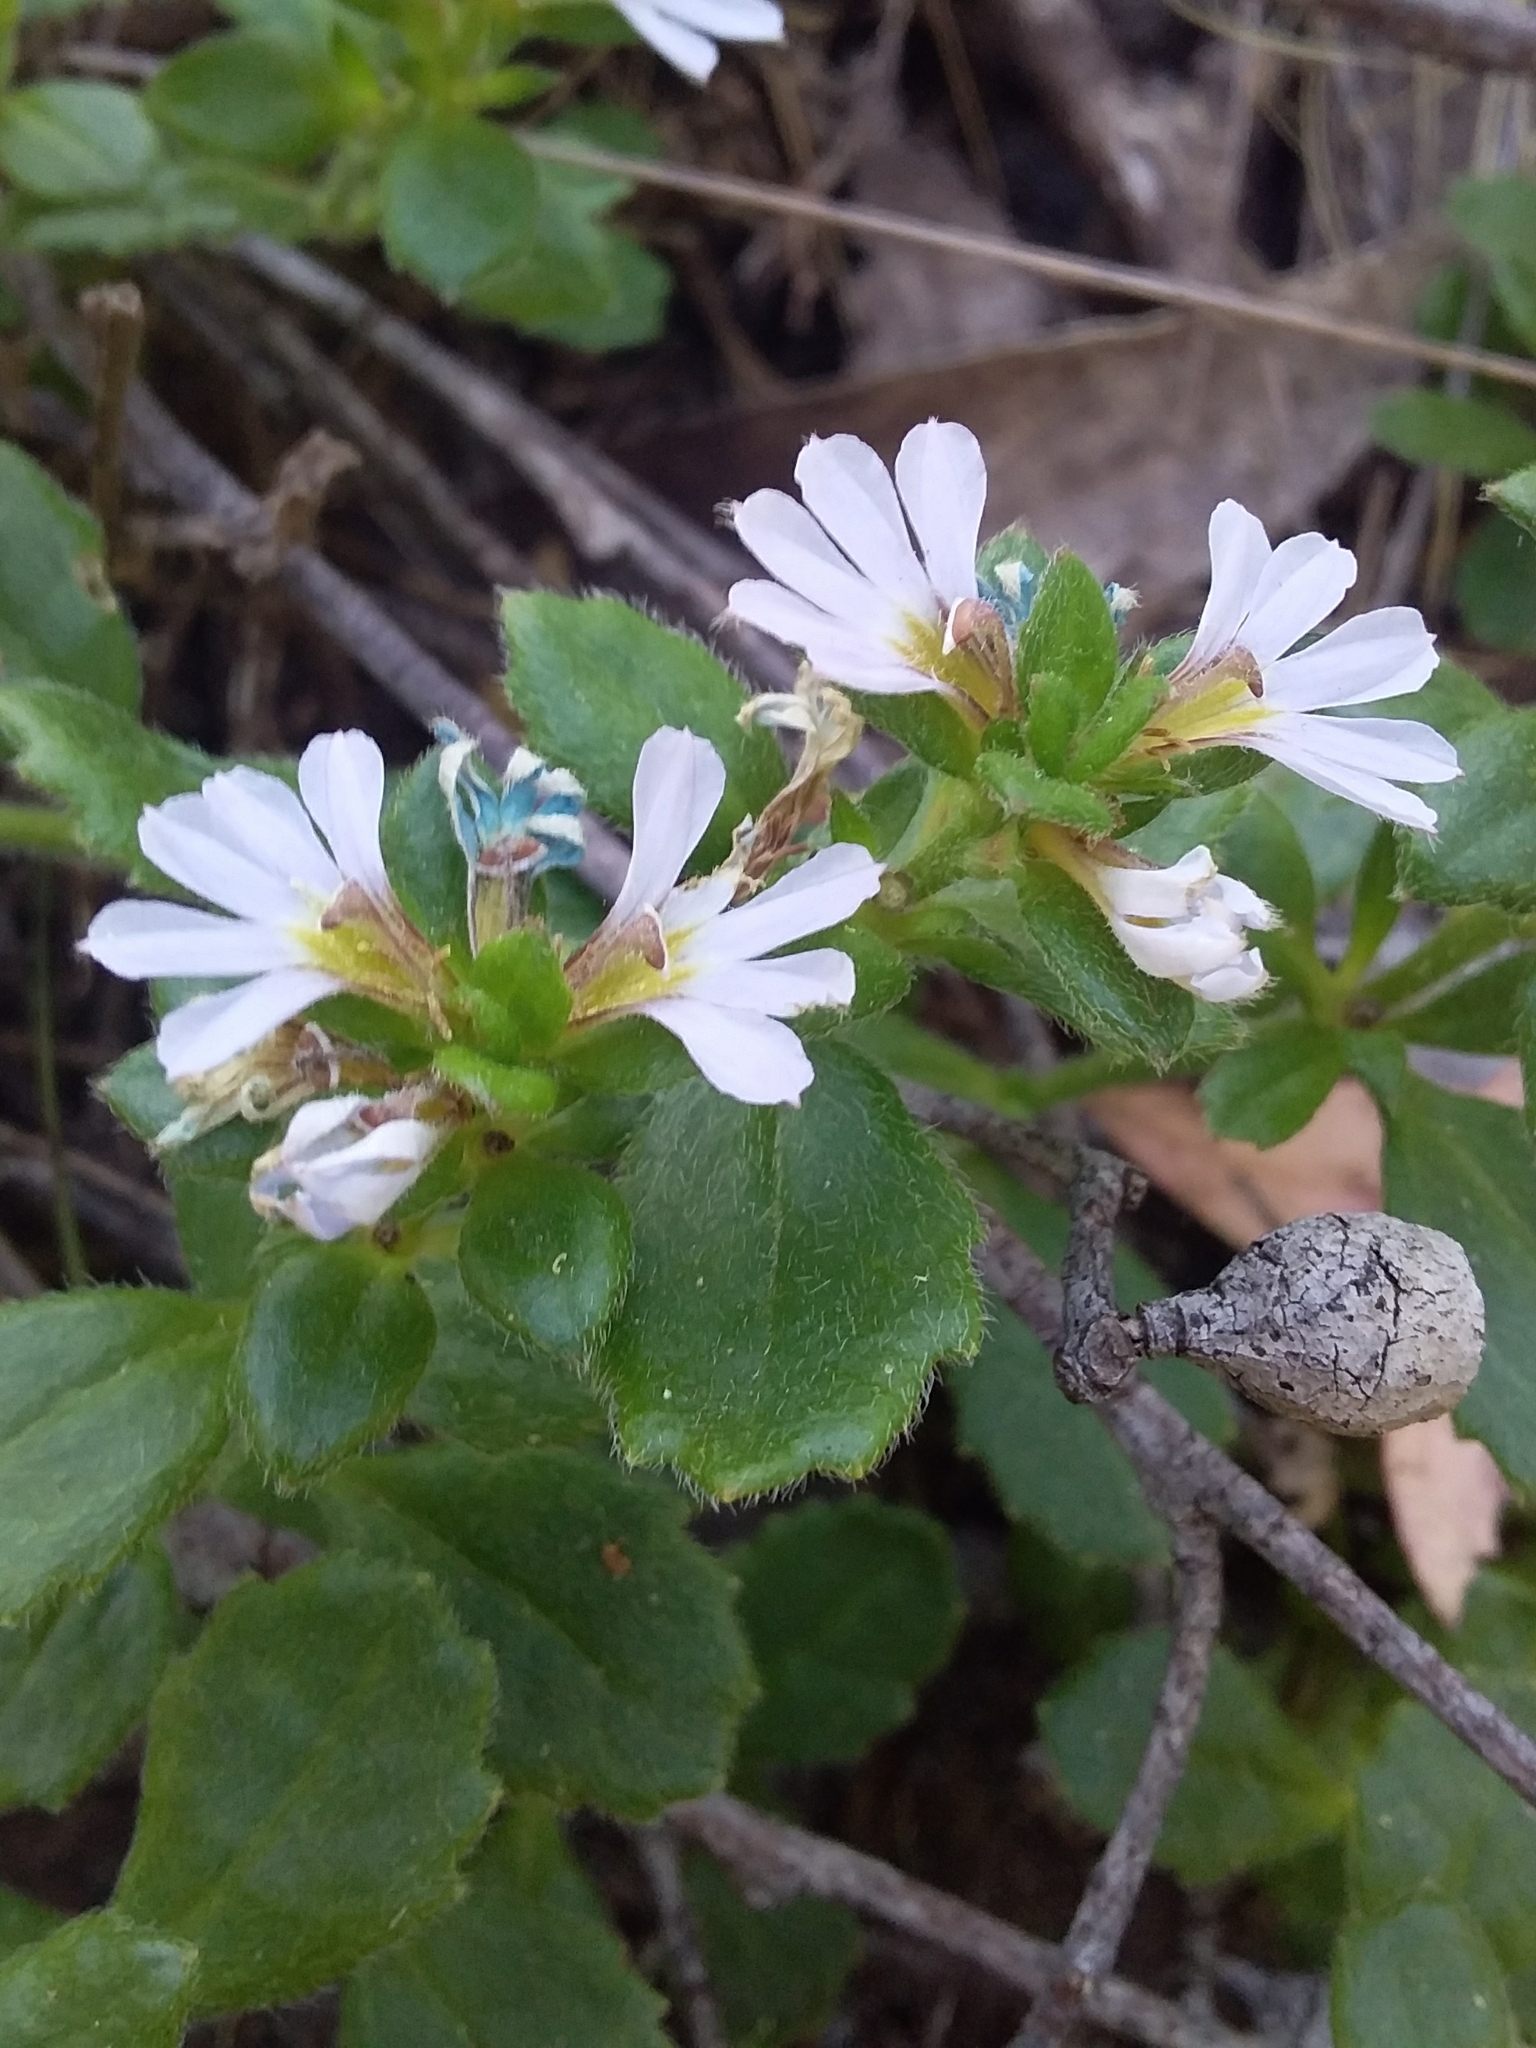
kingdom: Plantae
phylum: Tracheophyta
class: Magnoliopsida
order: Asterales
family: Goodeniaceae
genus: Scaevola
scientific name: Scaevola albida
